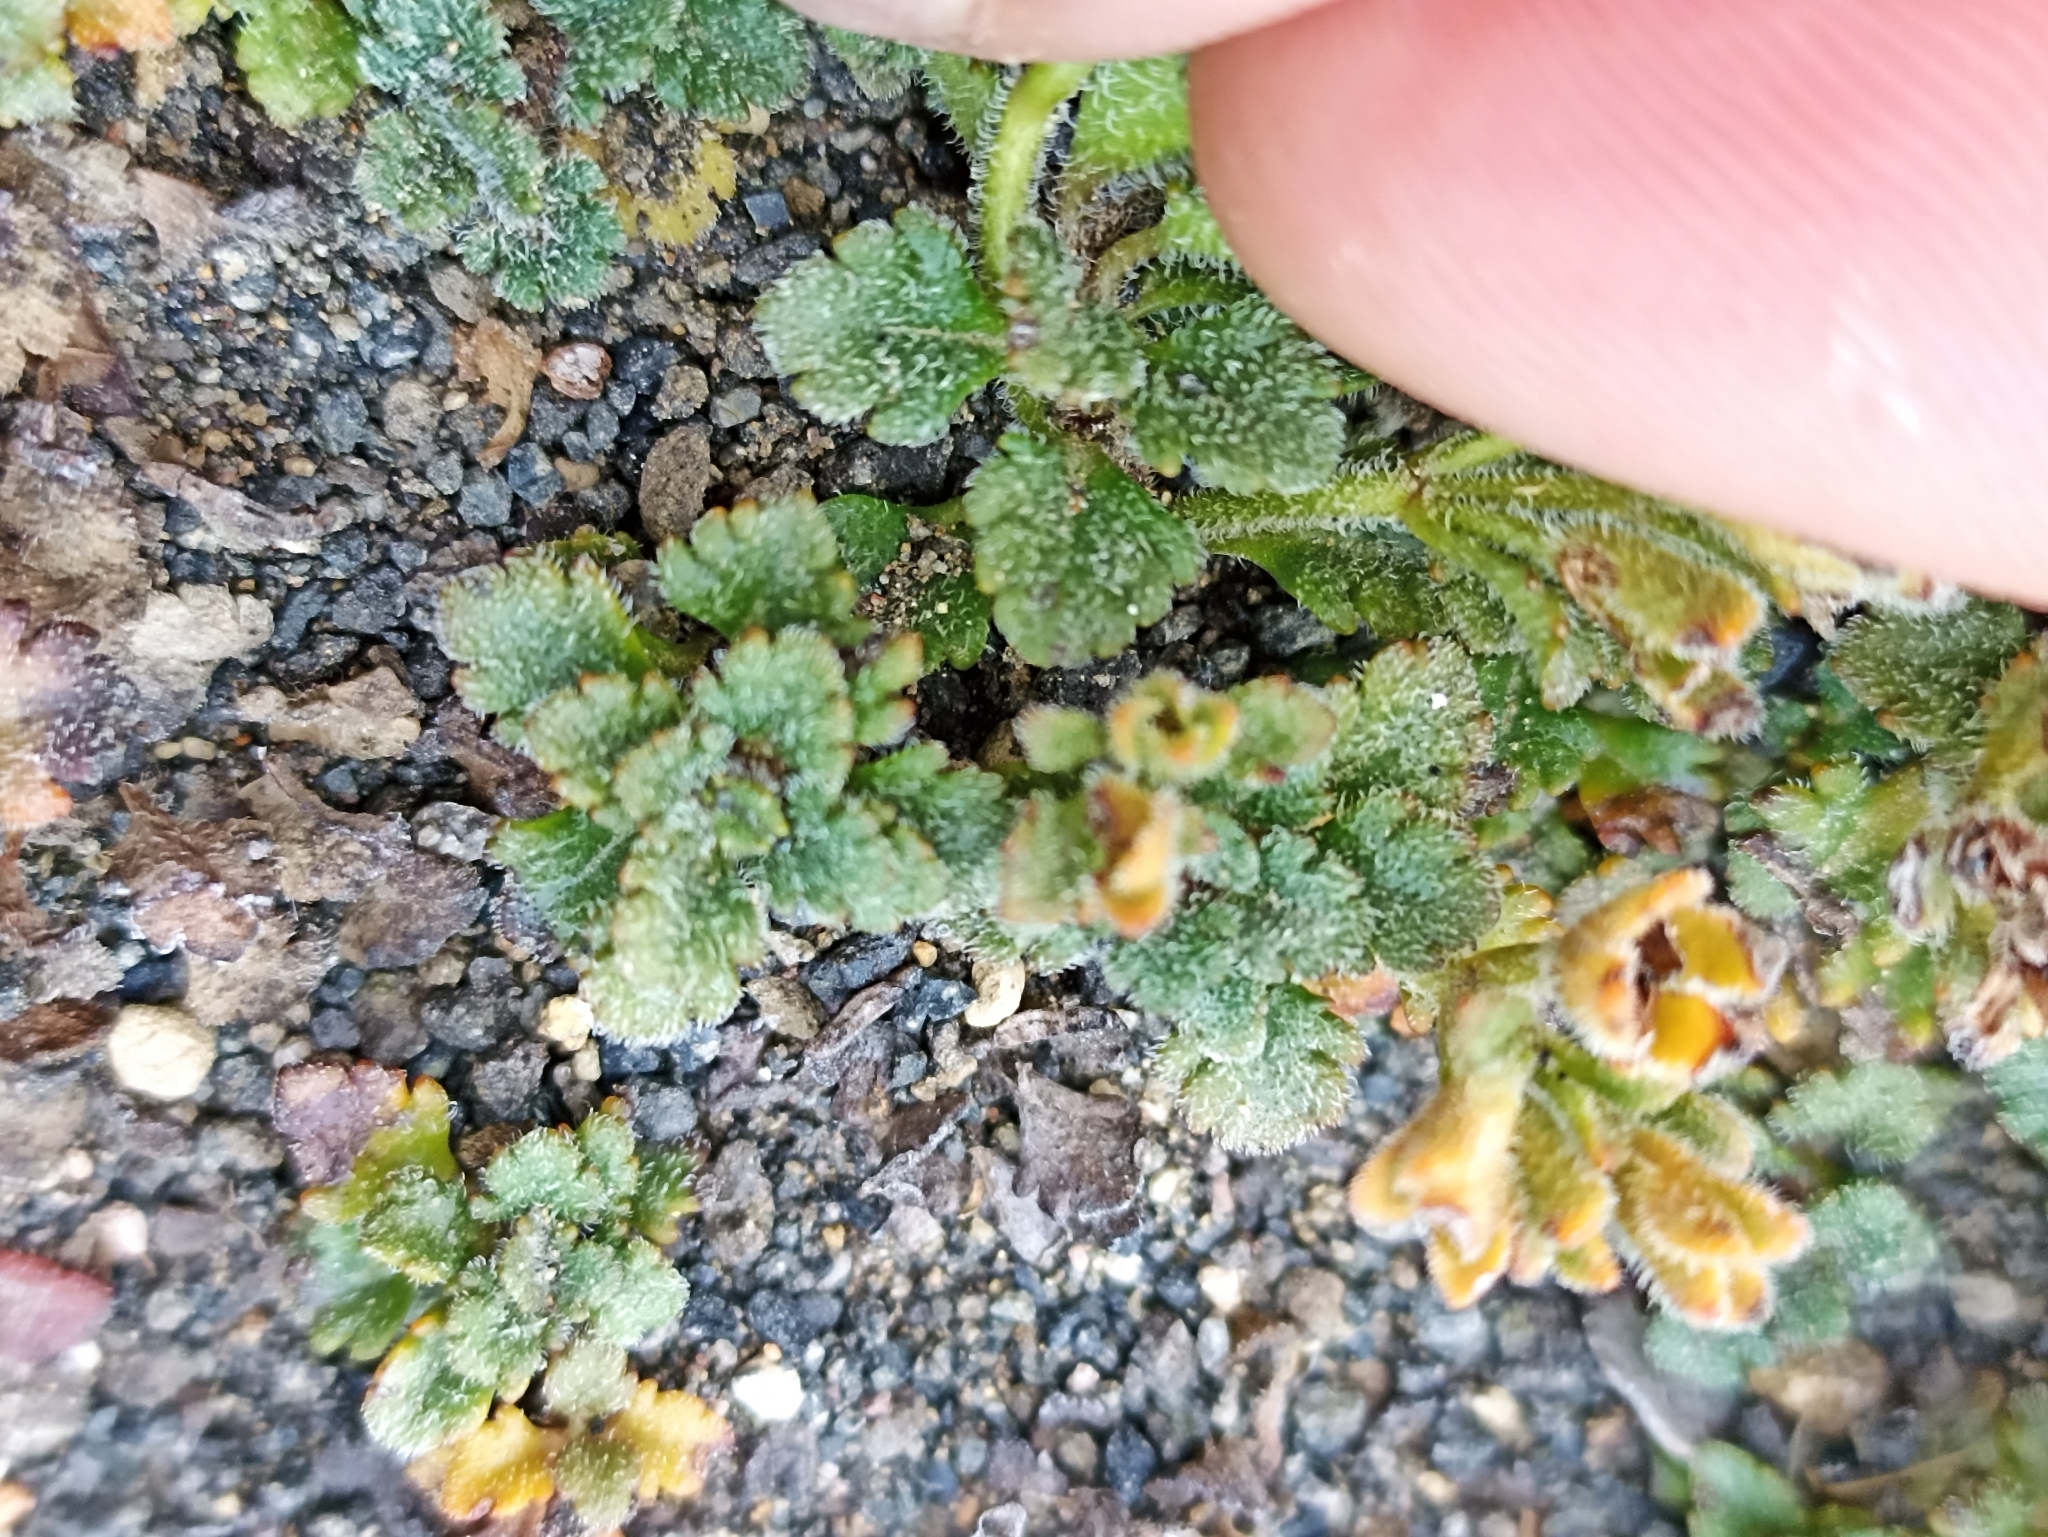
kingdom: Plantae
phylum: Tracheophyta
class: Magnoliopsida
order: Lamiales
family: Plantaginaceae
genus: Veronica
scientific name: Veronica spathulata
